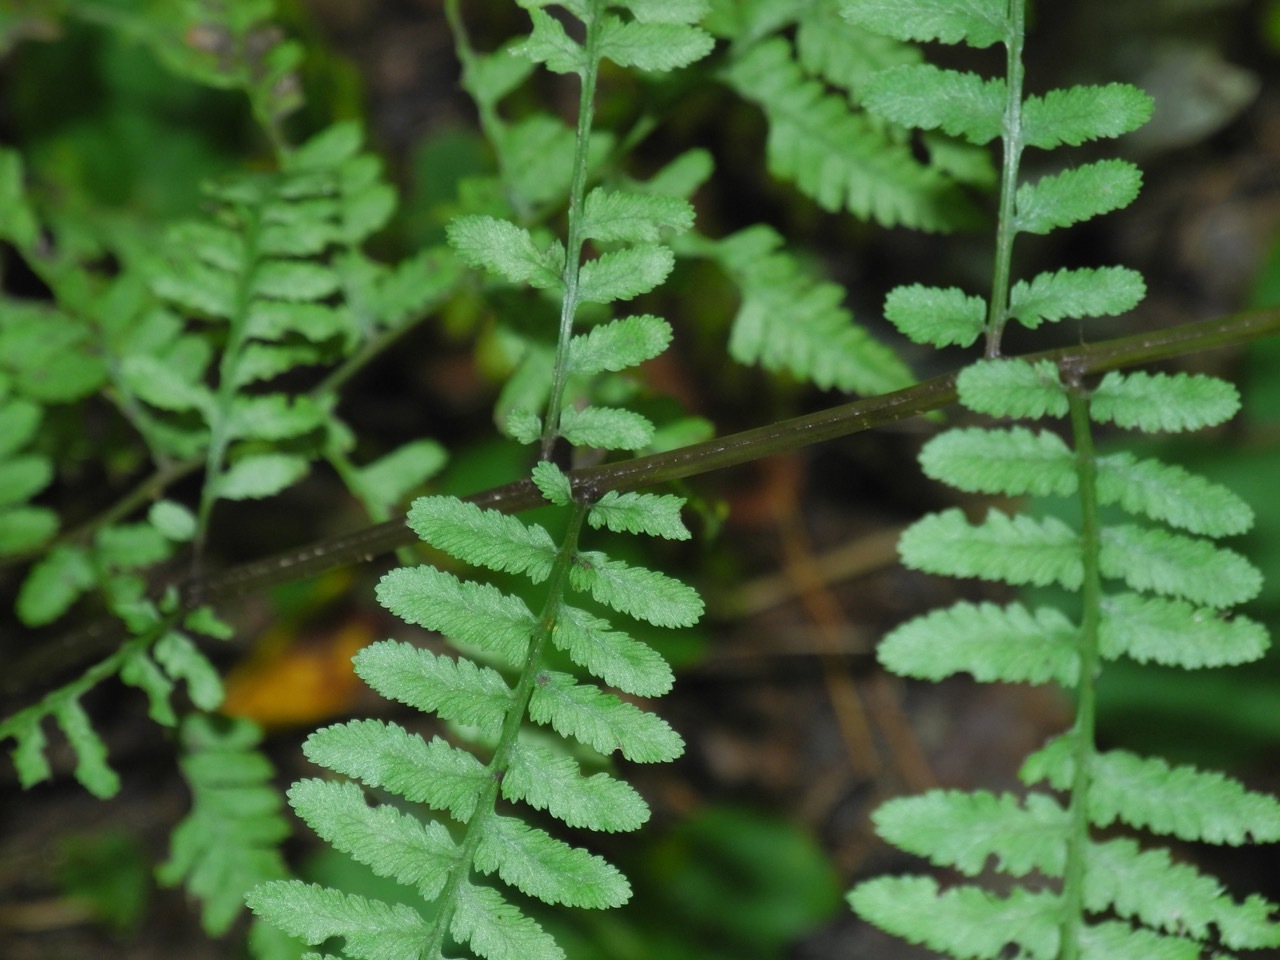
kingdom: Plantae
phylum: Tracheophyta
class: Polypodiopsida
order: Polypodiales
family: Athyriaceae
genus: Athyrium
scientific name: Athyrium asplenioides
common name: Southern lady fern
